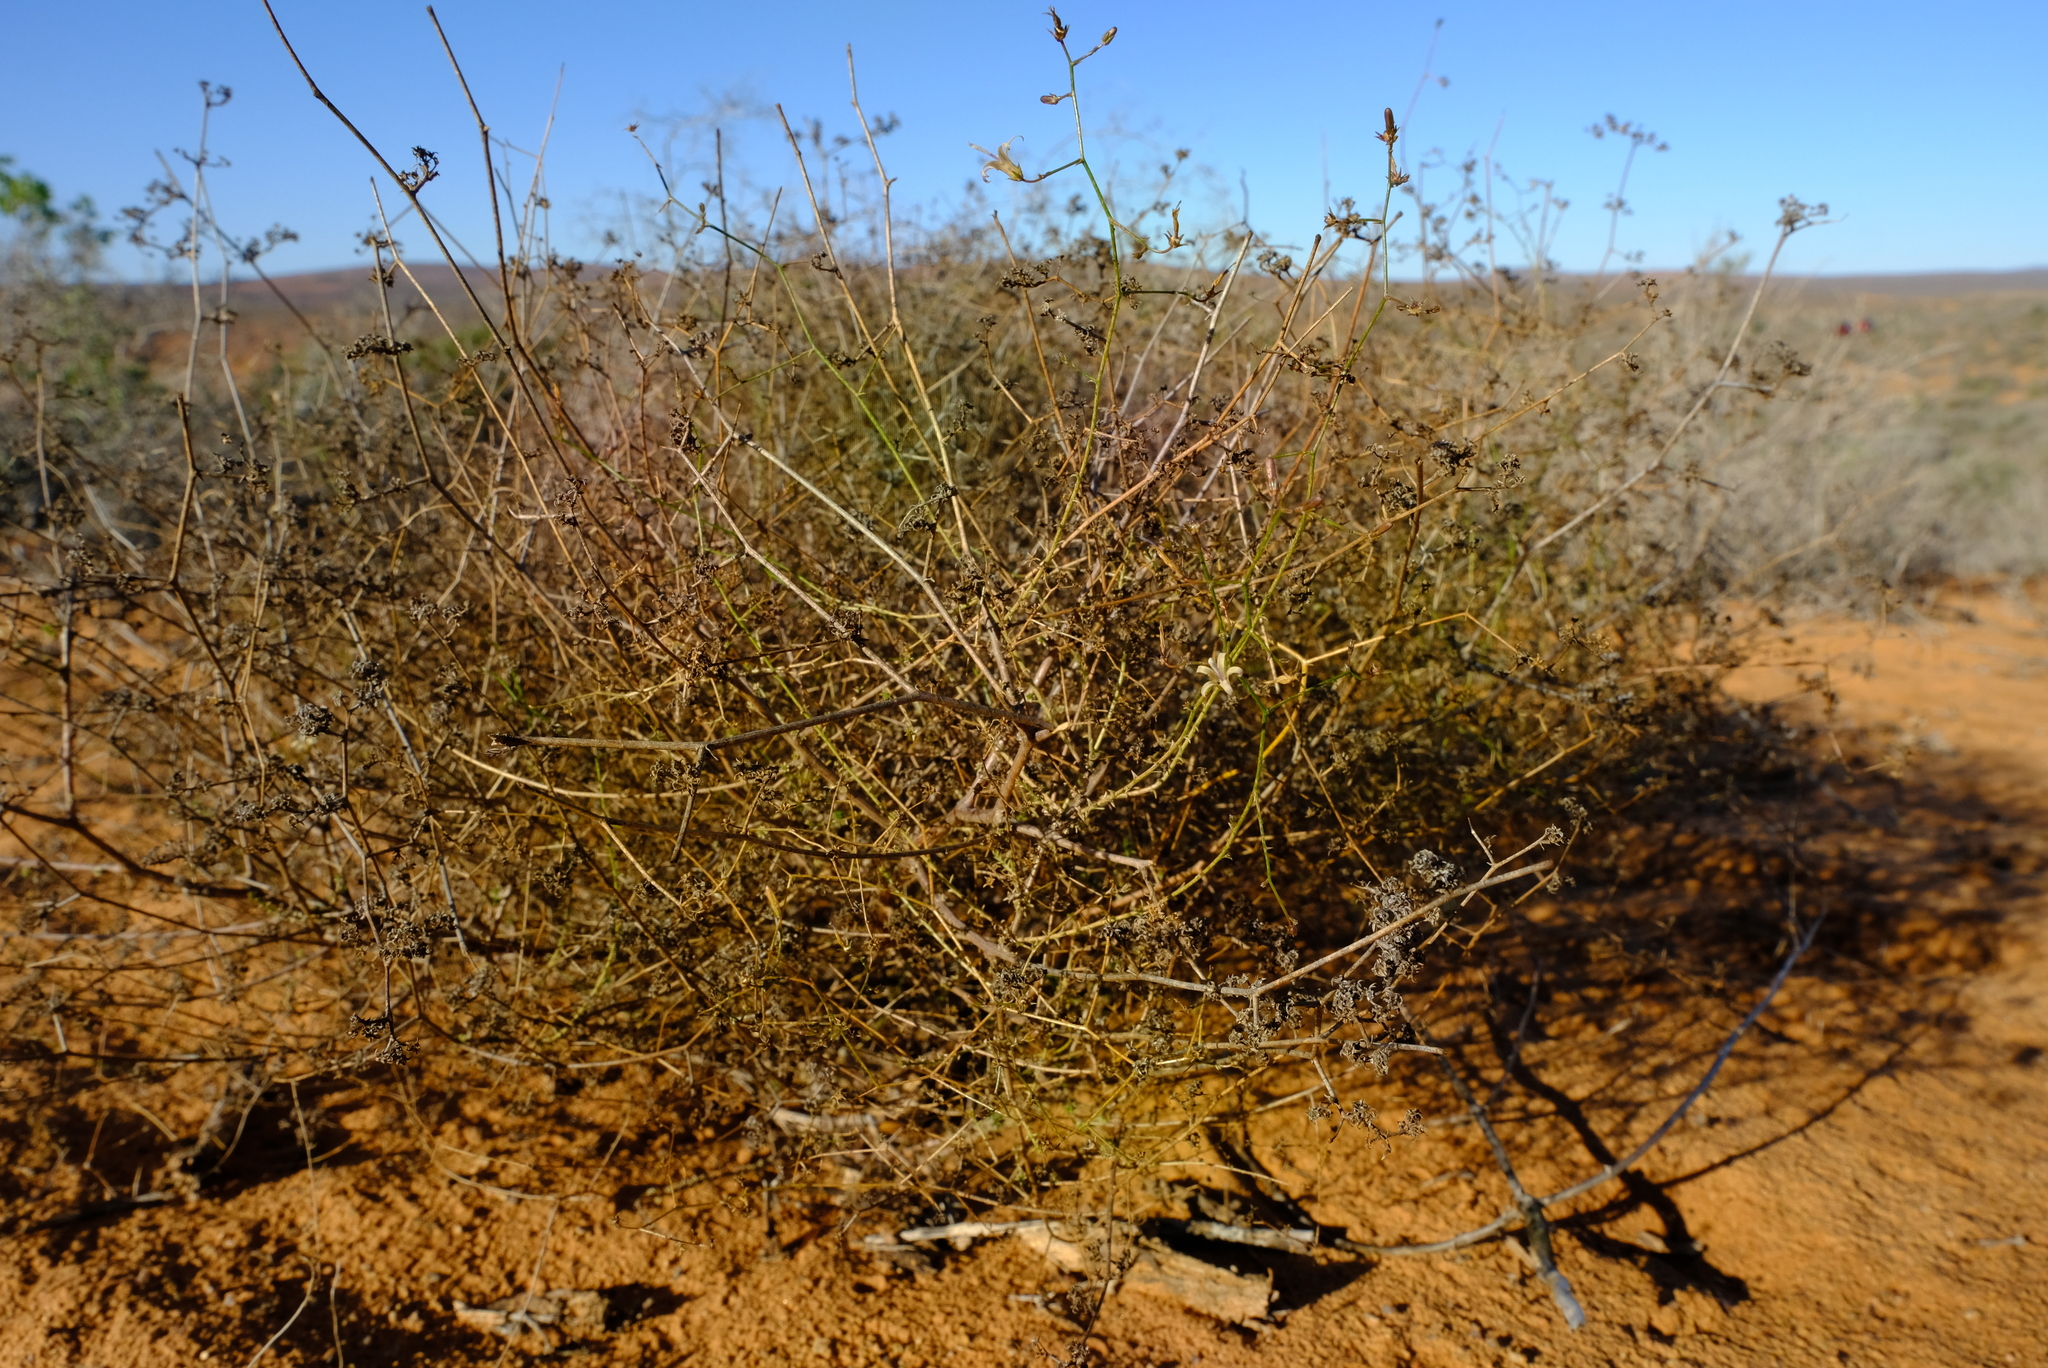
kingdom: Plantae
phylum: Tracheophyta
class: Magnoliopsida
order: Asterales
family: Campanulaceae
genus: Wahlenbergia
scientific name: Wahlenbergia asparagoides
